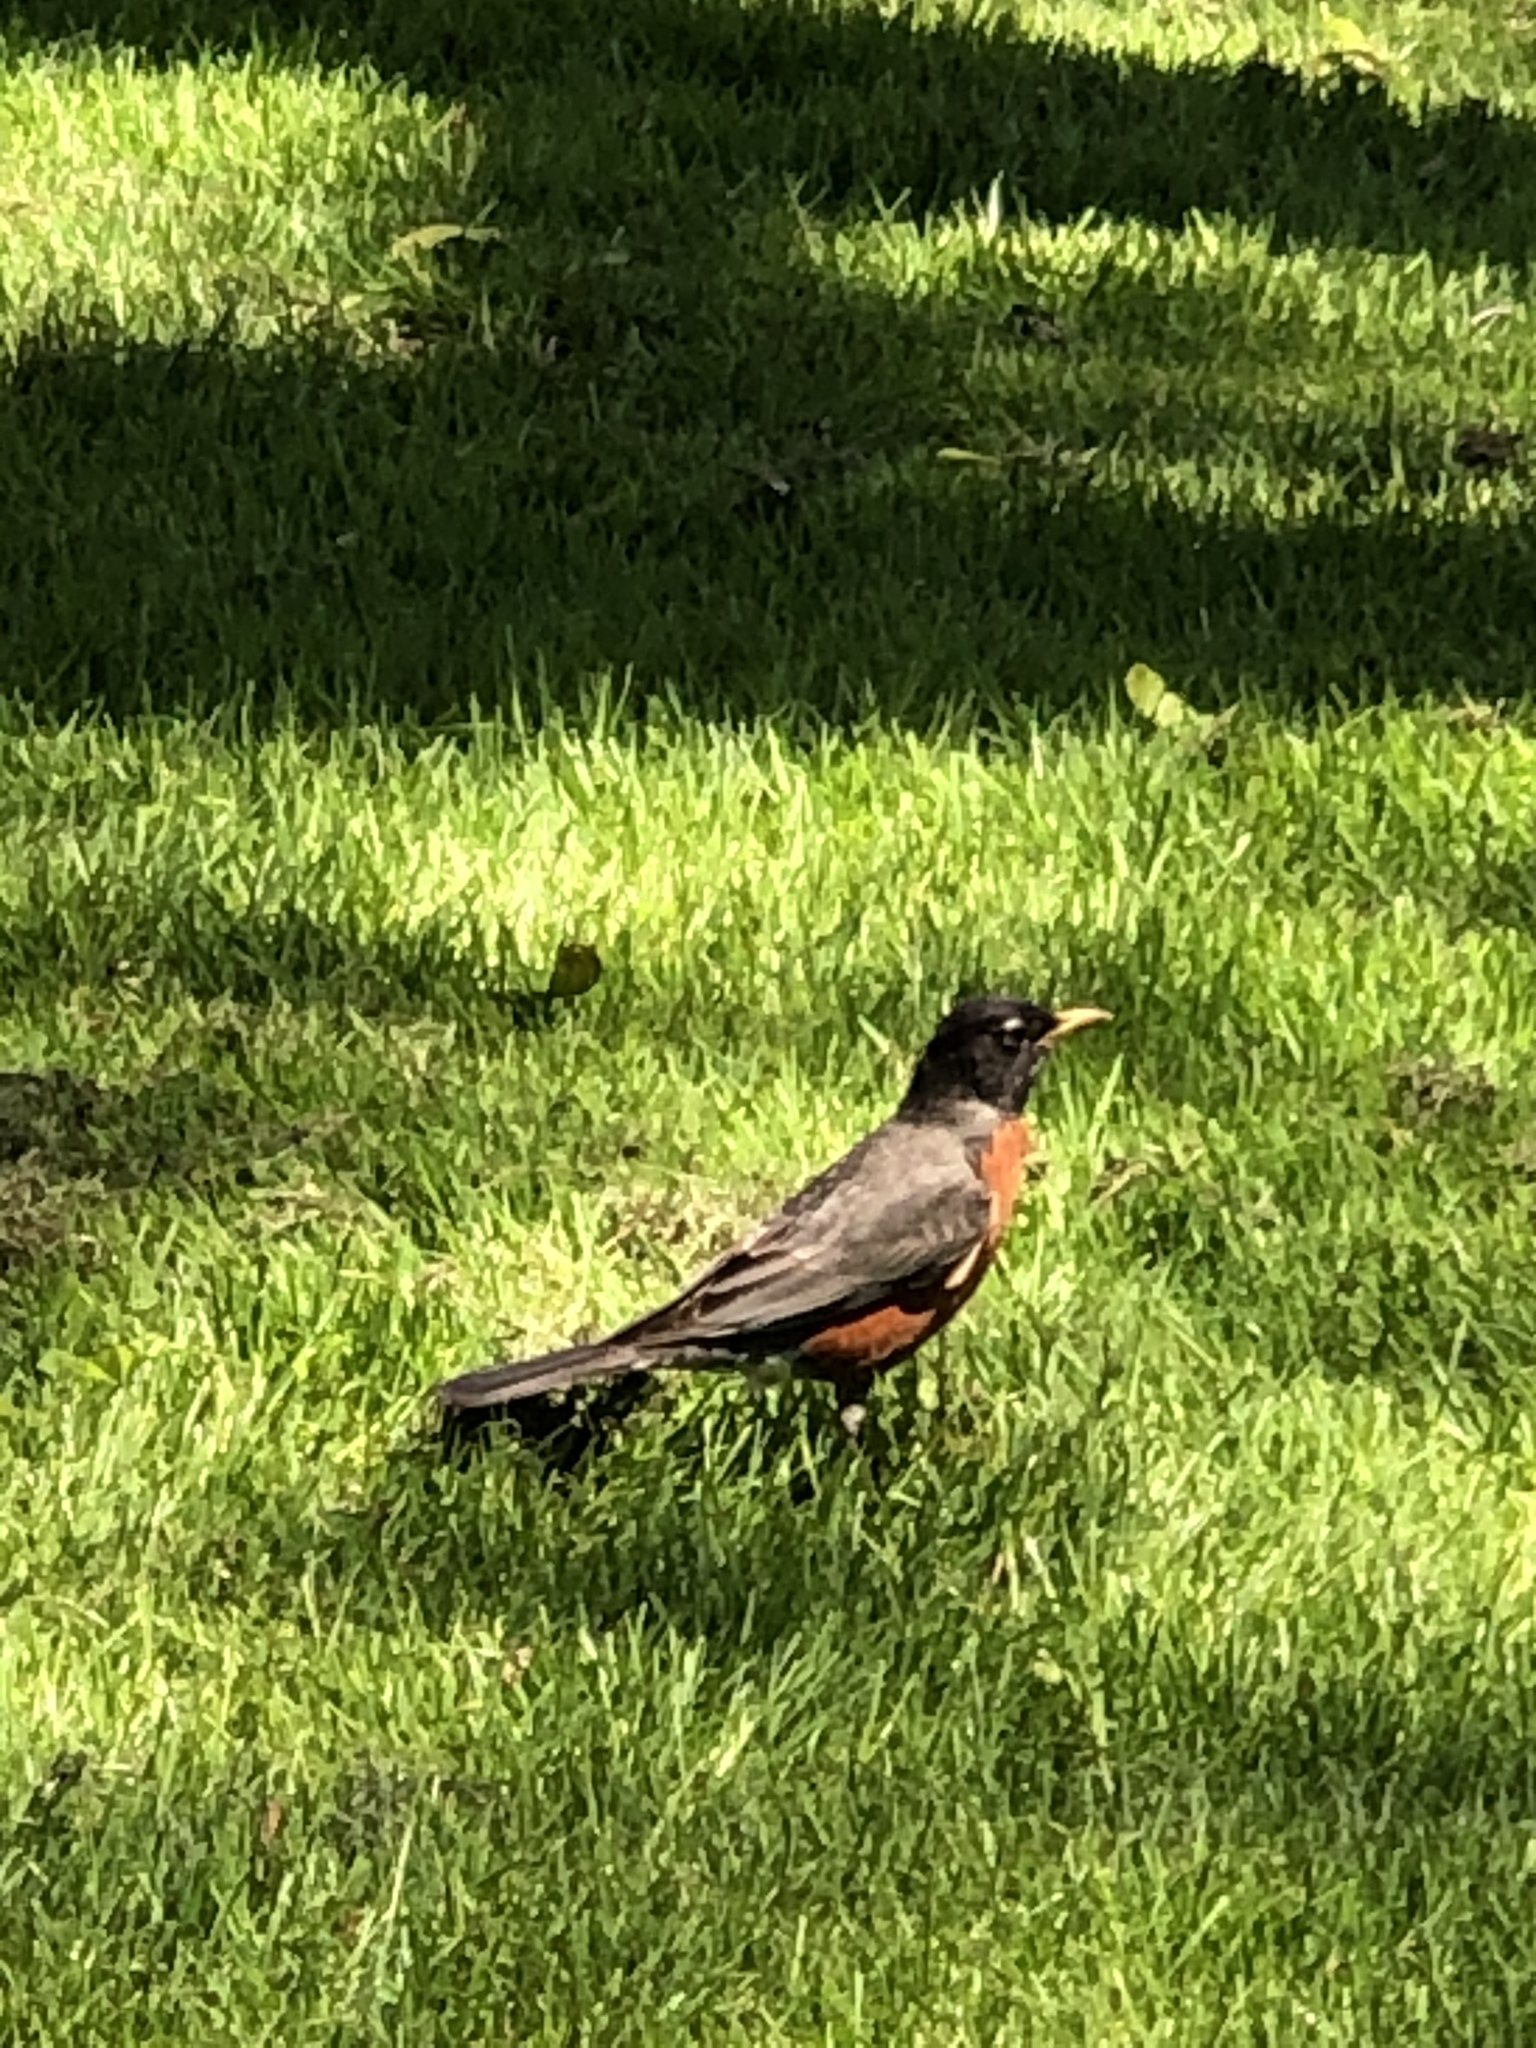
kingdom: Animalia
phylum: Chordata
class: Aves
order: Passeriformes
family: Turdidae
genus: Turdus
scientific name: Turdus migratorius
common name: American robin
